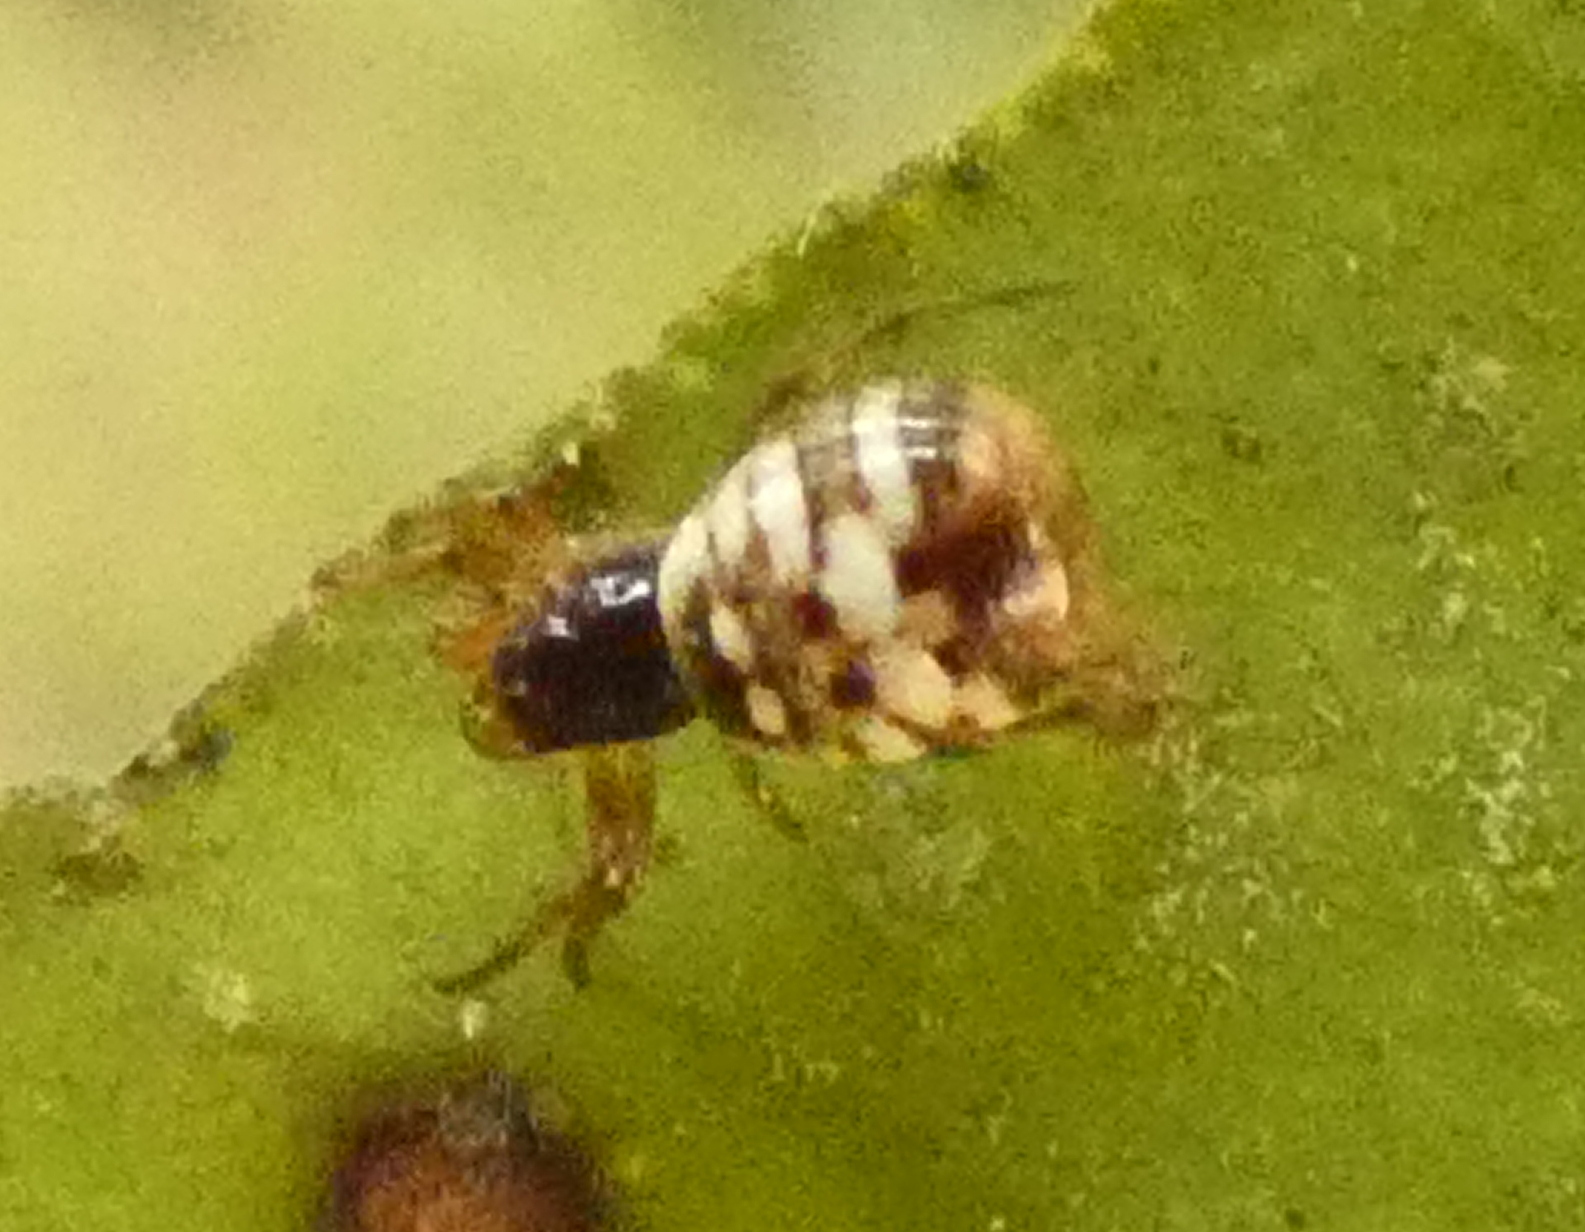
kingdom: Animalia
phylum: Arthropoda
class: Arachnida
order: Araneae
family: Araneidae
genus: Micrathena
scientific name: Micrathena patruelis
